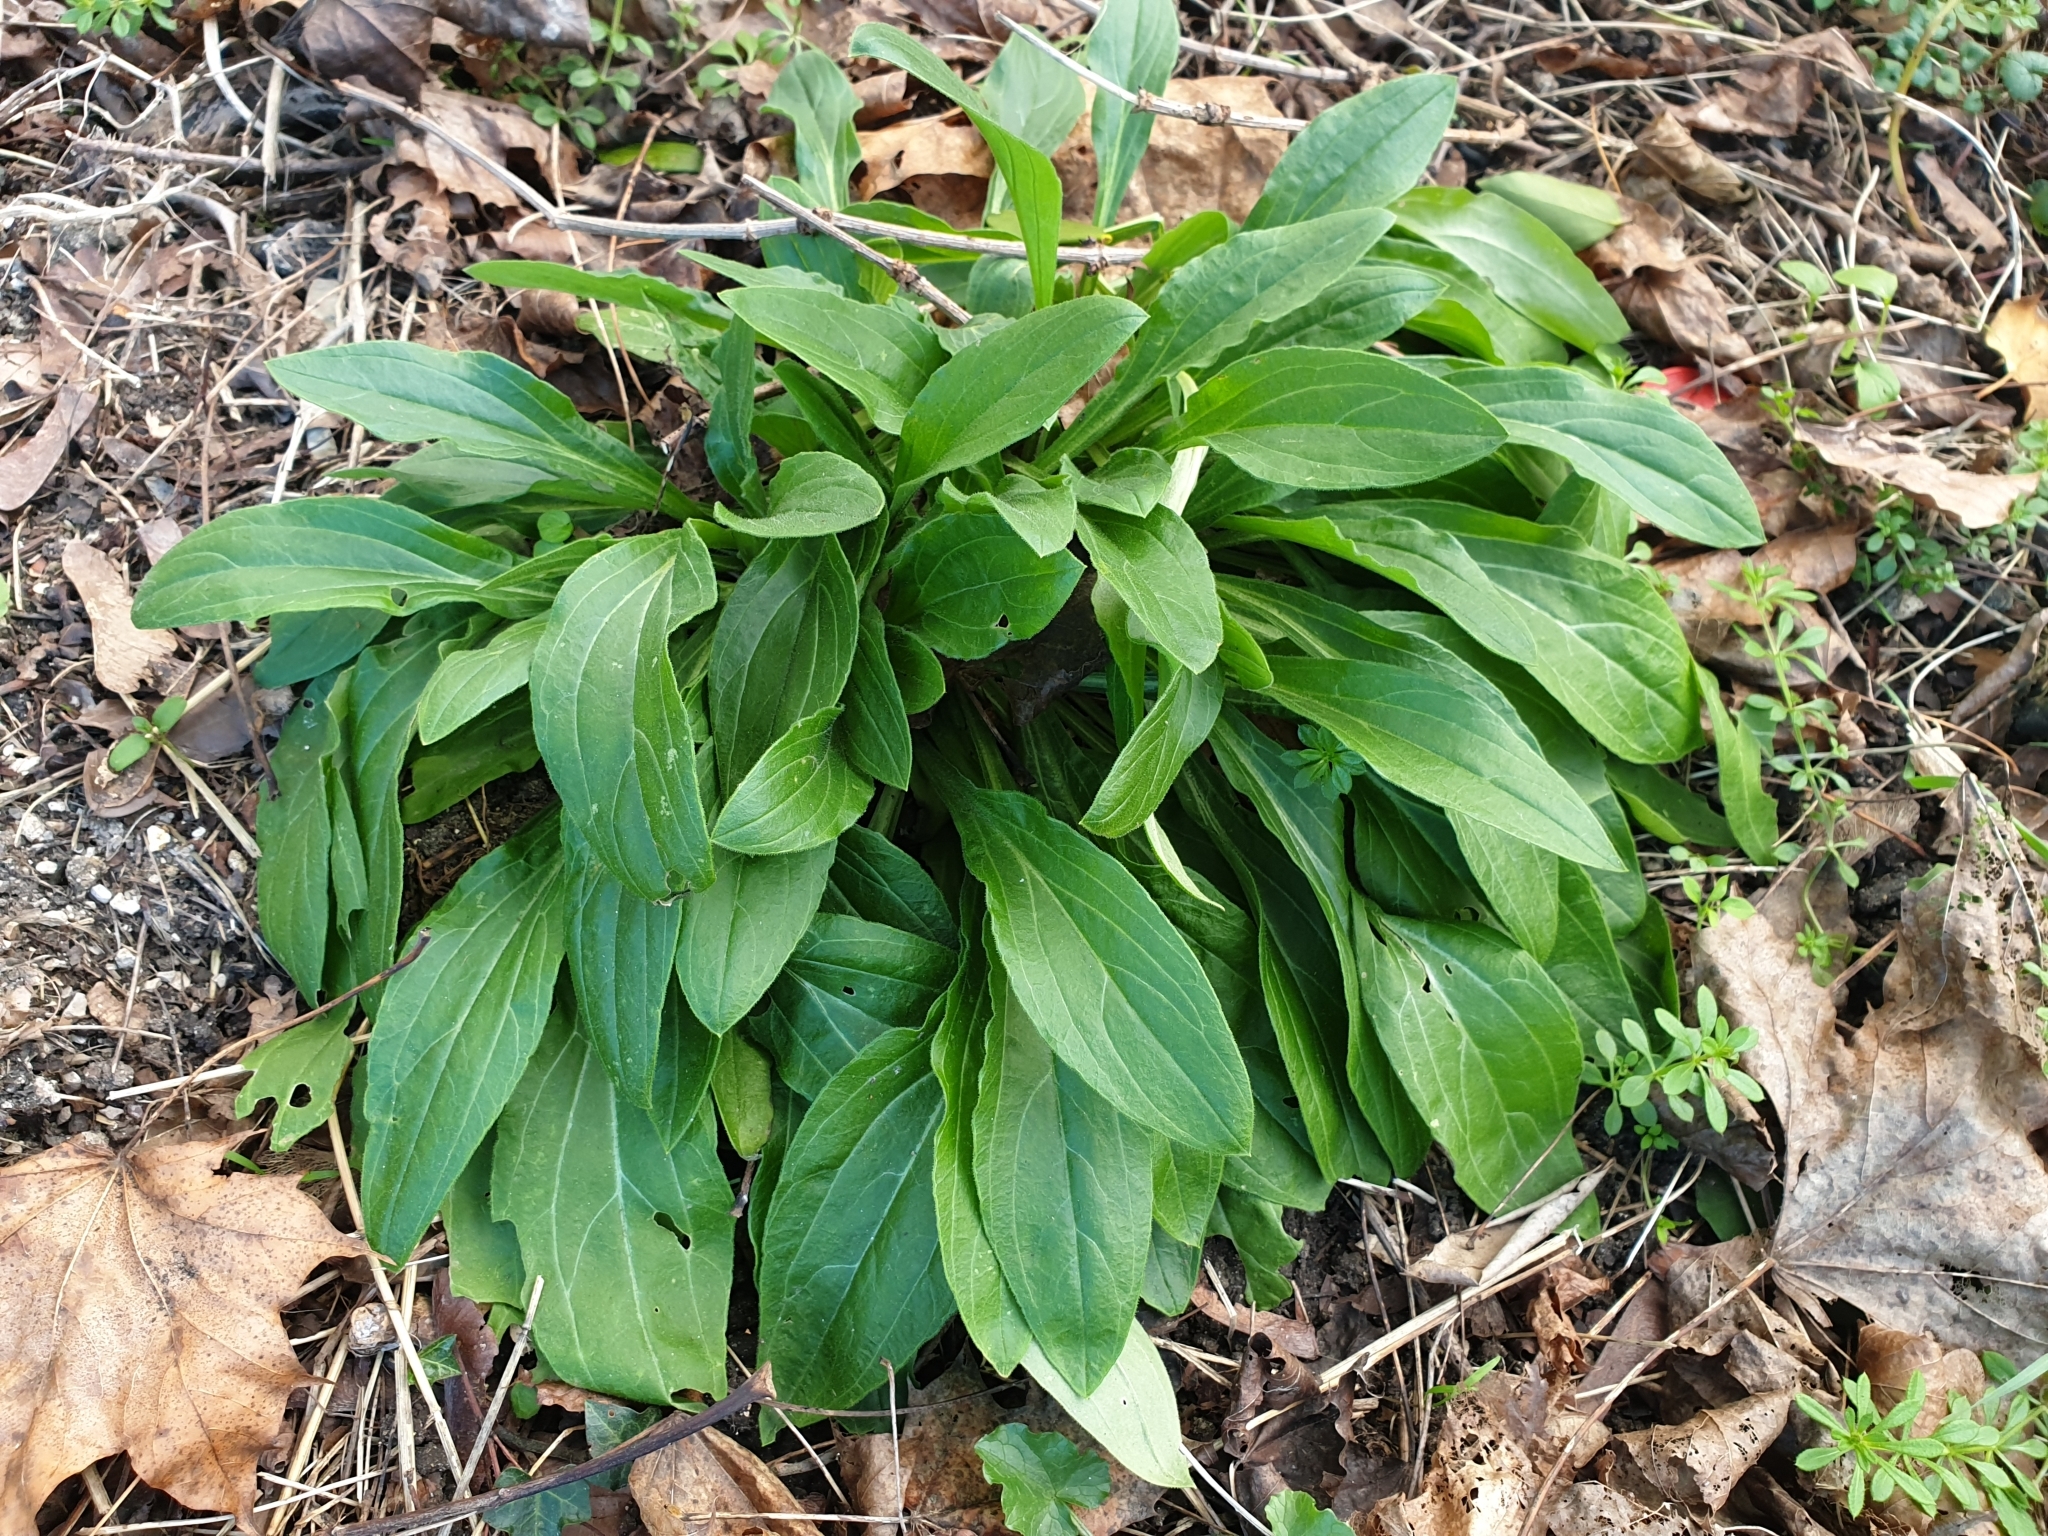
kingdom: Plantae
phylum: Tracheophyta
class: Magnoliopsida
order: Caryophyllales
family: Caryophyllaceae
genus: Silene
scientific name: Silene latifolia
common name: White campion
